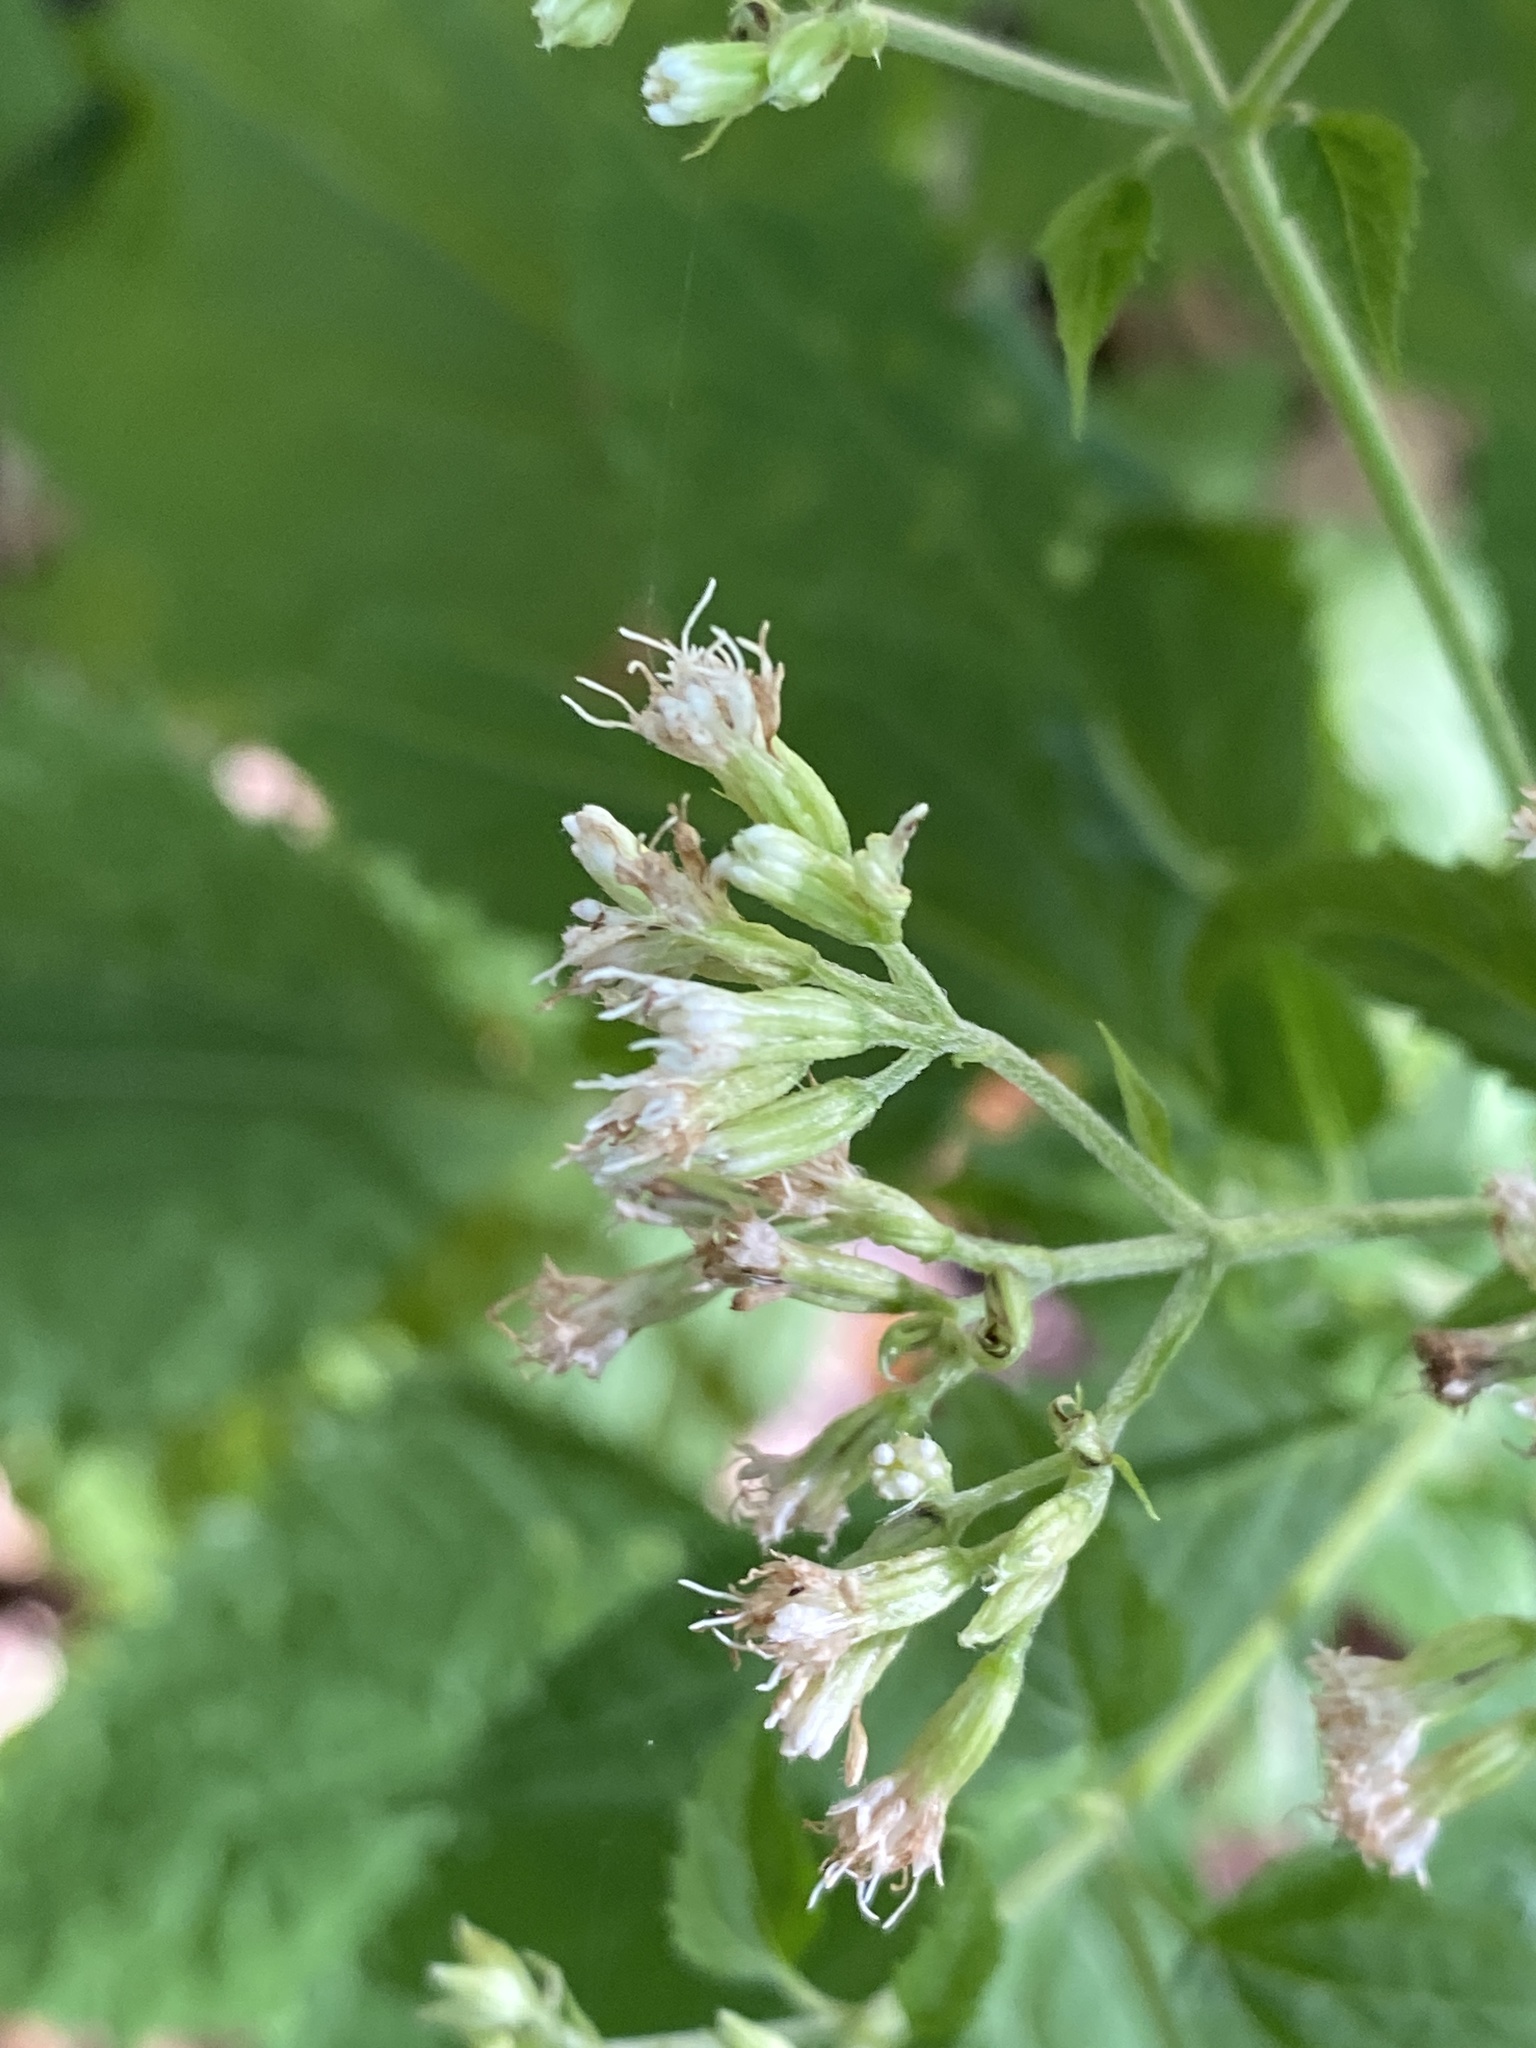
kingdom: Plantae
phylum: Tracheophyta
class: Magnoliopsida
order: Asterales
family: Asteraceae
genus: Ageratina
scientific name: Ageratina altissima
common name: White snakeroot
